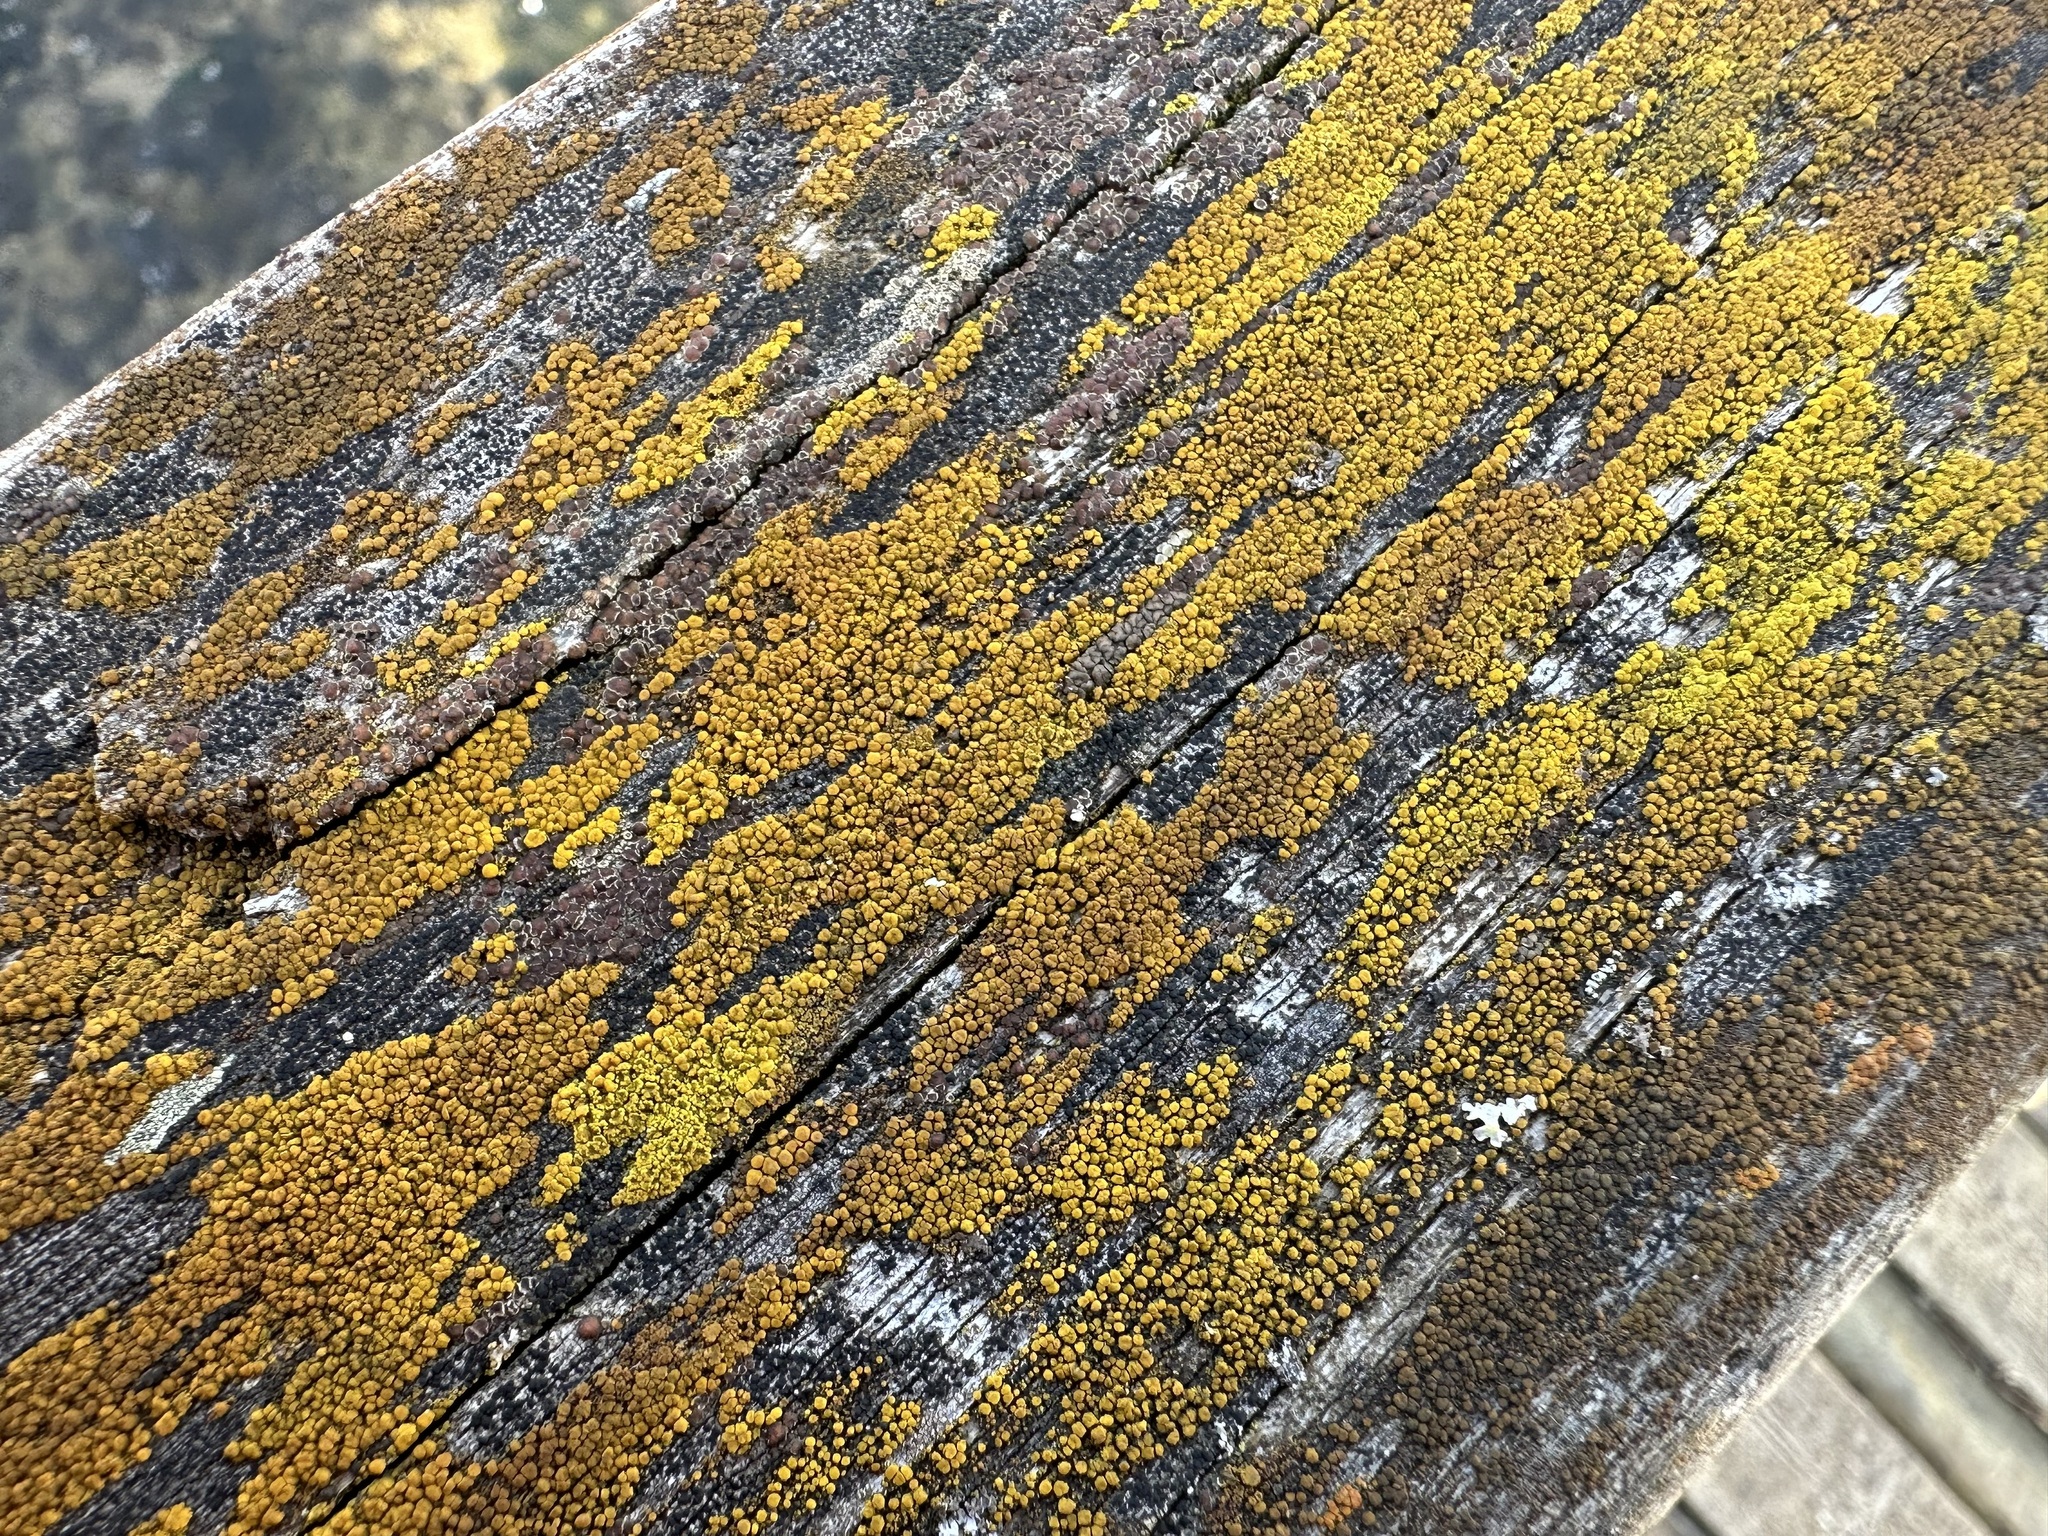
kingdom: Fungi
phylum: Ascomycota
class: Candelariomycetes
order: Candelariales
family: Candelariaceae
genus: Candelariella
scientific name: Candelariella vitellina
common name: Common goldspeck
